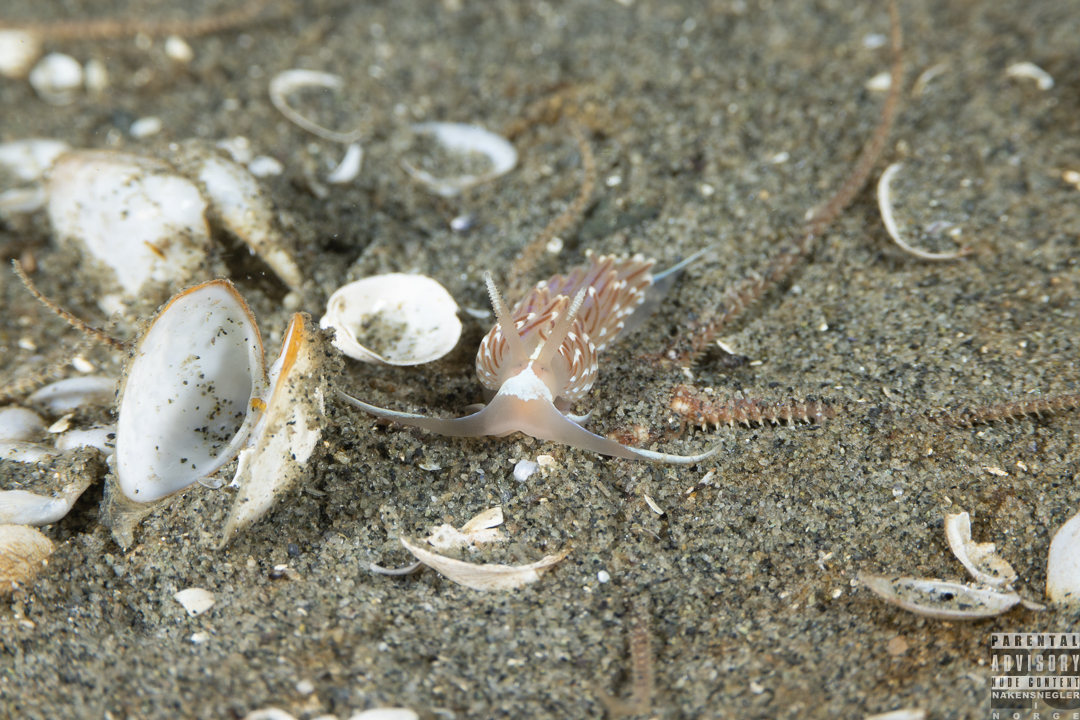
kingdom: Animalia
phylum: Mollusca
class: Gastropoda
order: Nudibranchia
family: Facelinidae
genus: Facelina
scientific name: Facelina bostoniensis
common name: Boston facelina
